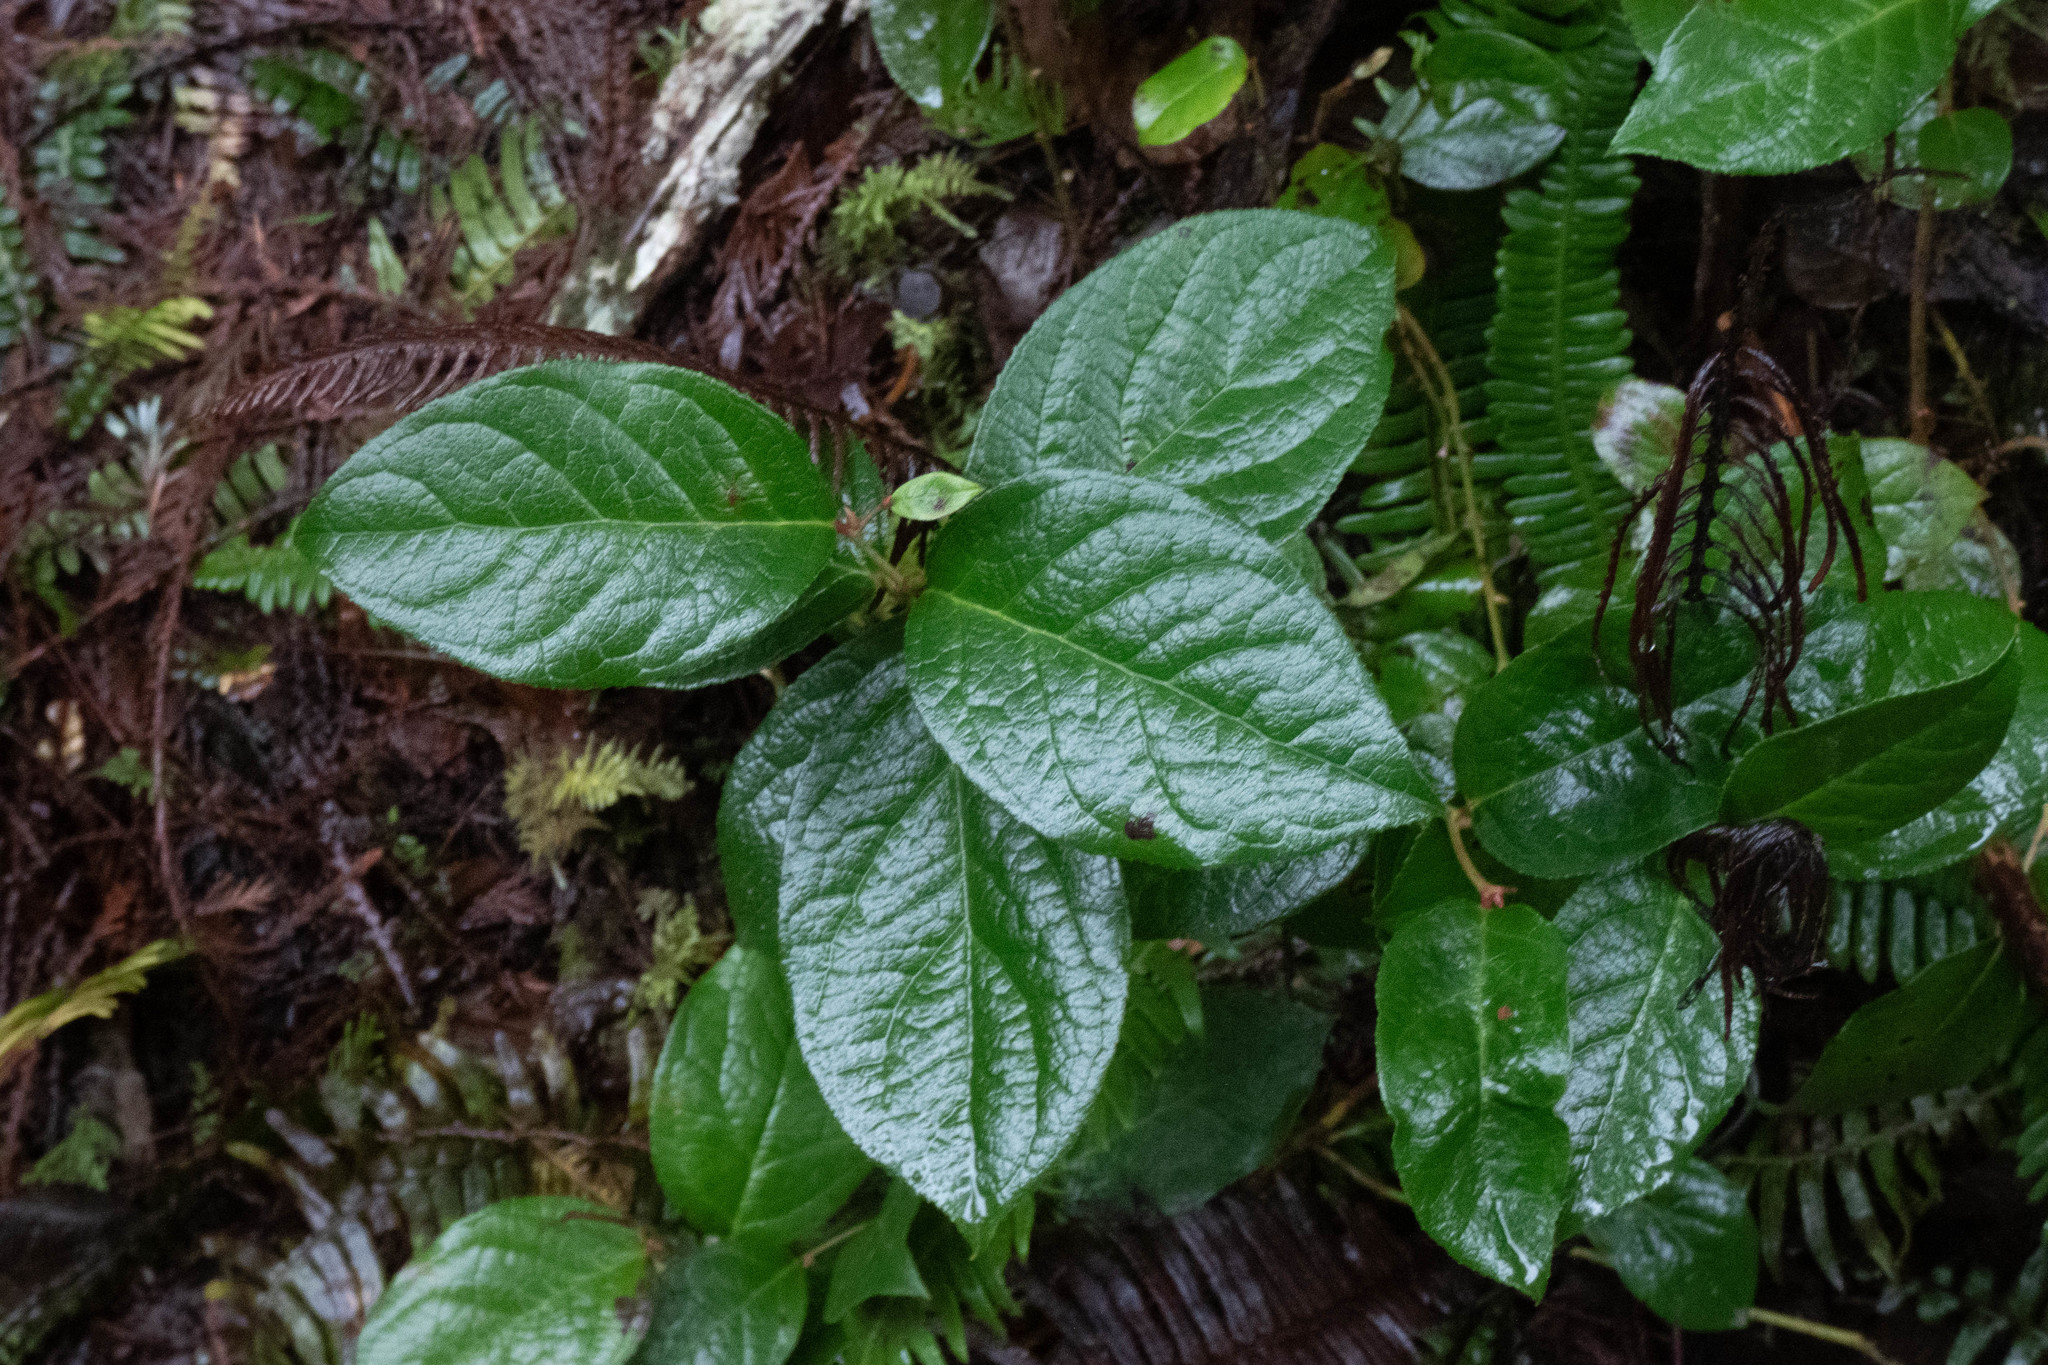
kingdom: Plantae
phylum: Tracheophyta
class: Magnoliopsida
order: Ericales
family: Ericaceae
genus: Gaultheria
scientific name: Gaultheria shallon
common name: Shallon
